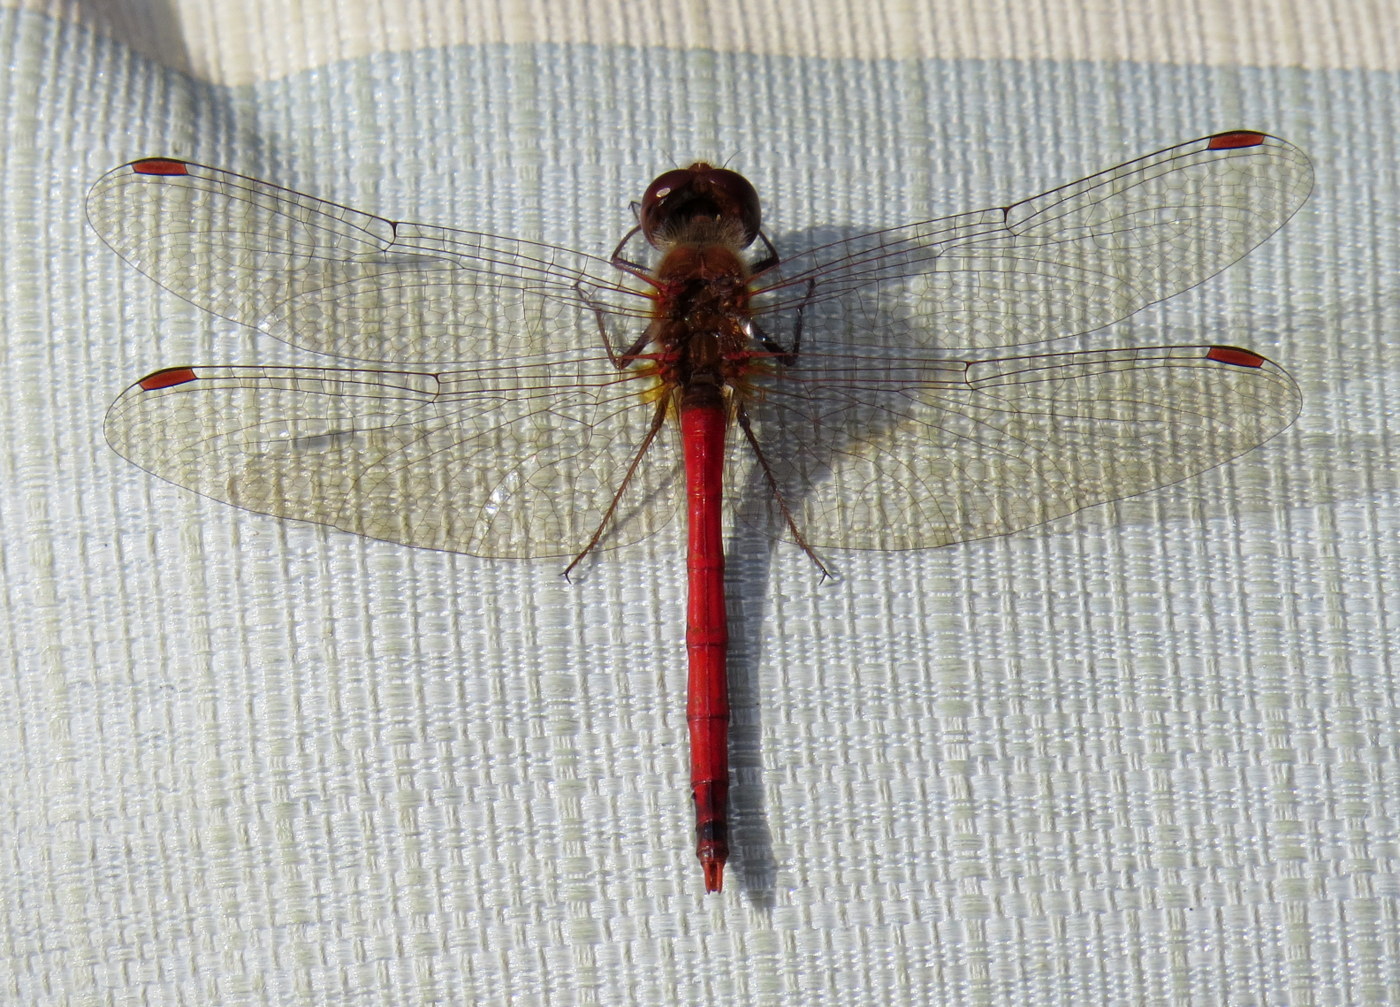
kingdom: Animalia
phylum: Arthropoda
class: Insecta
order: Odonata
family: Libellulidae
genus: Sympetrum
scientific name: Sympetrum vicinum
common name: Autumn meadowhawk
